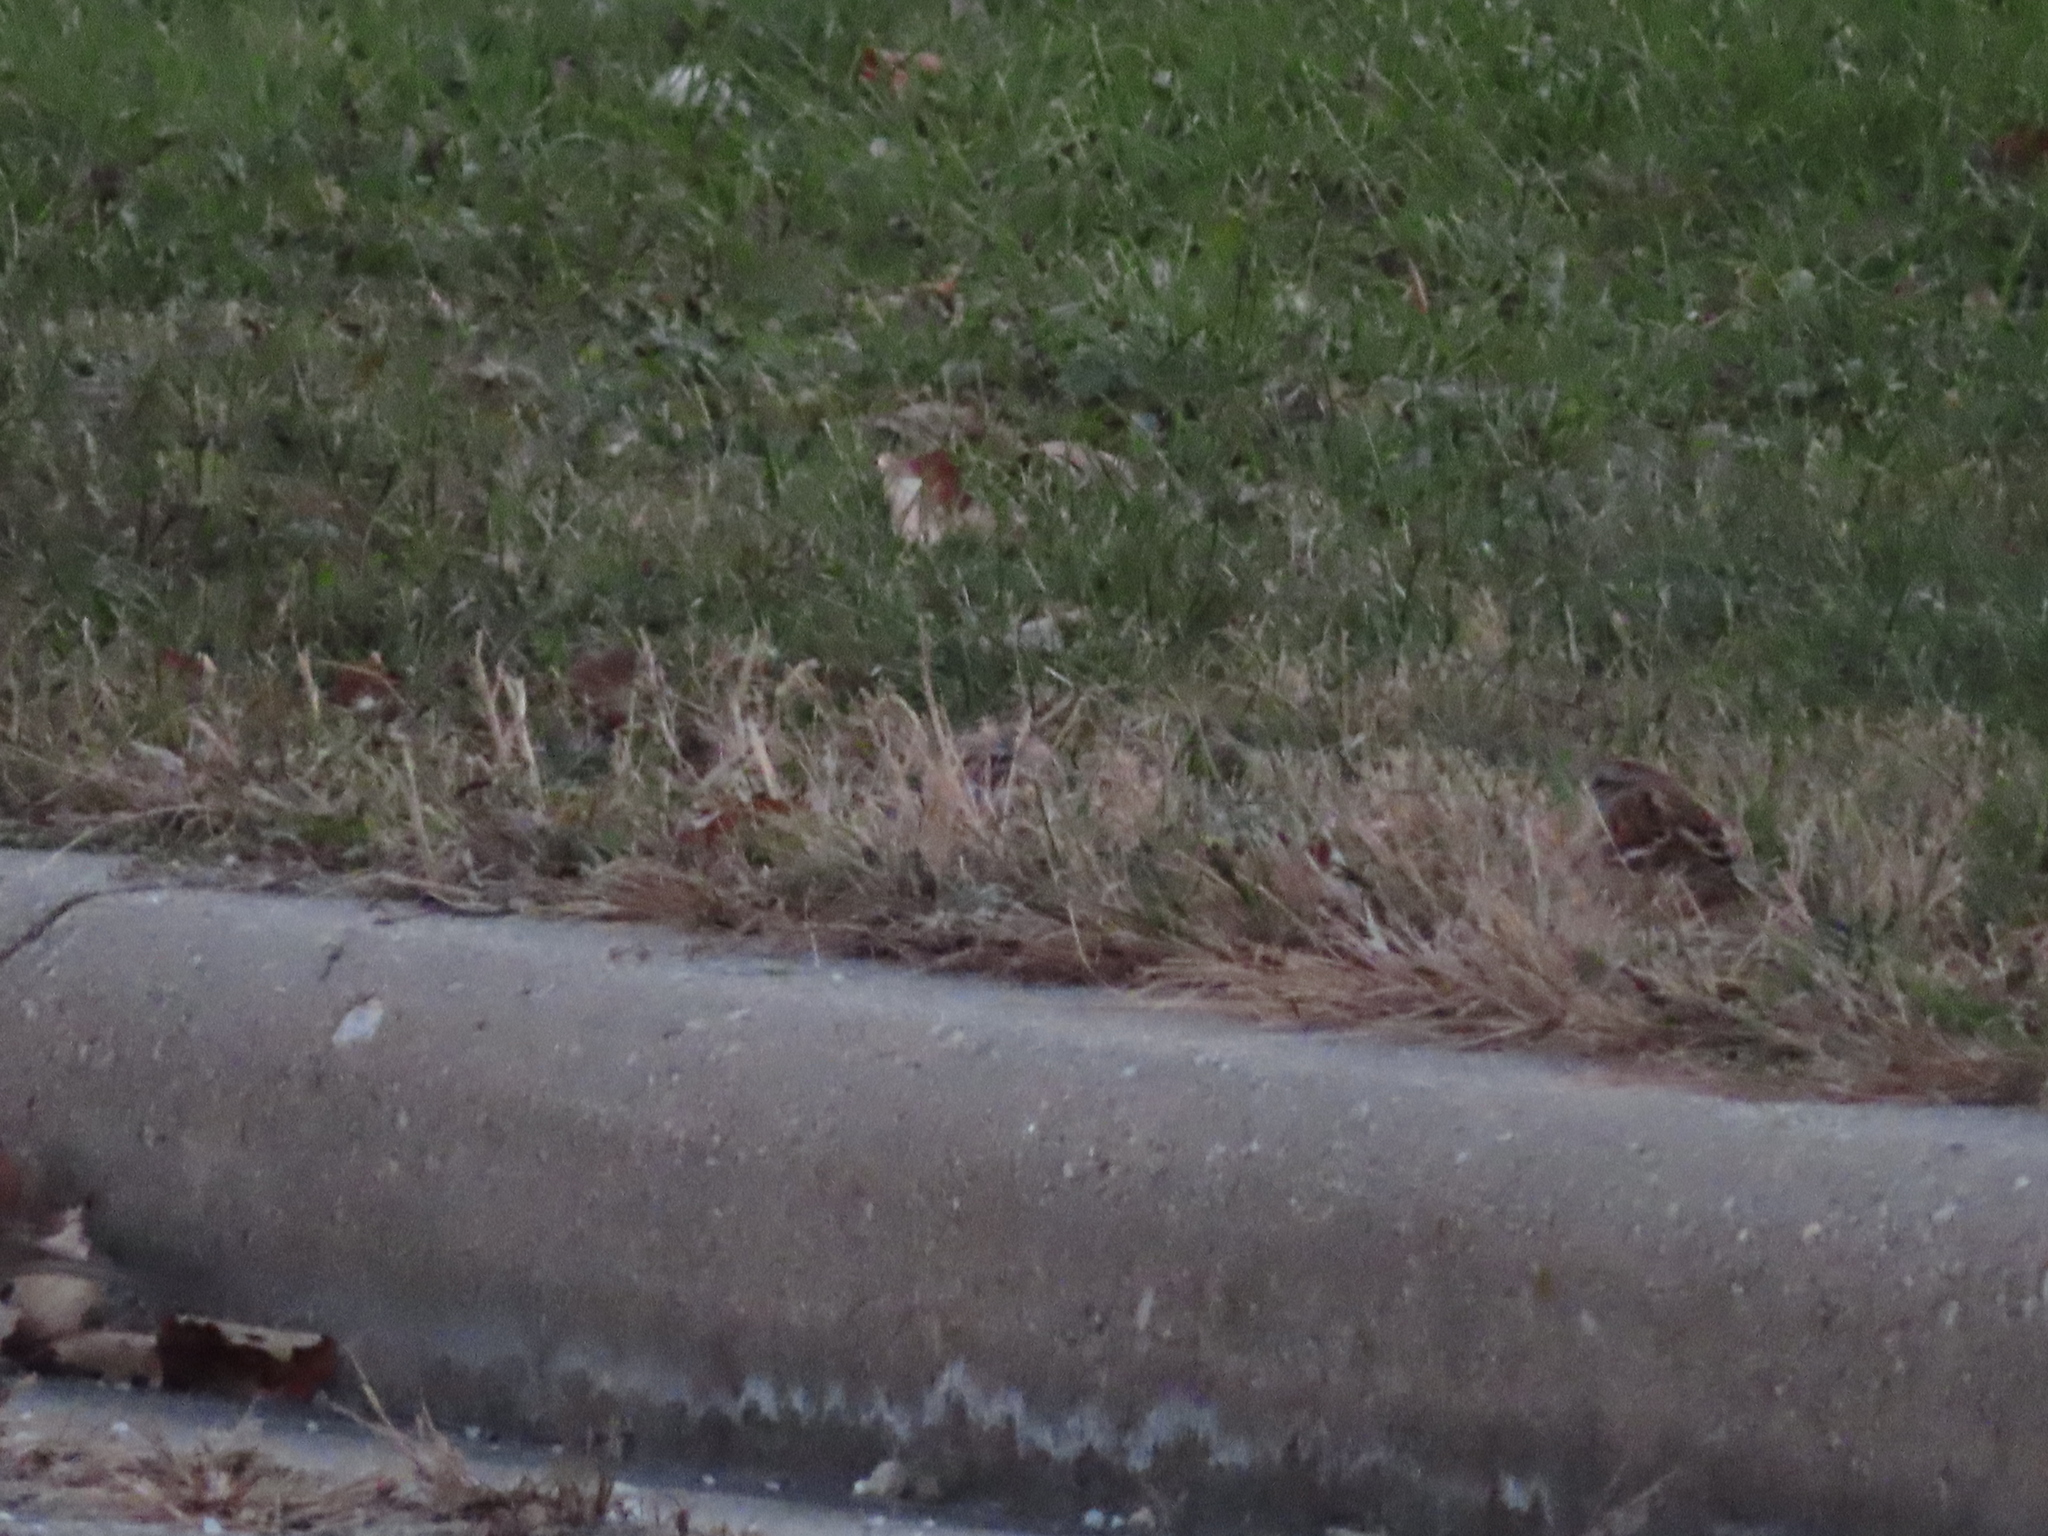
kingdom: Animalia
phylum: Chordata
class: Aves
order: Passeriformes
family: Passerellidae
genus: Spizelloides
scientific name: Spizelloides arborea
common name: American tree sparrow
